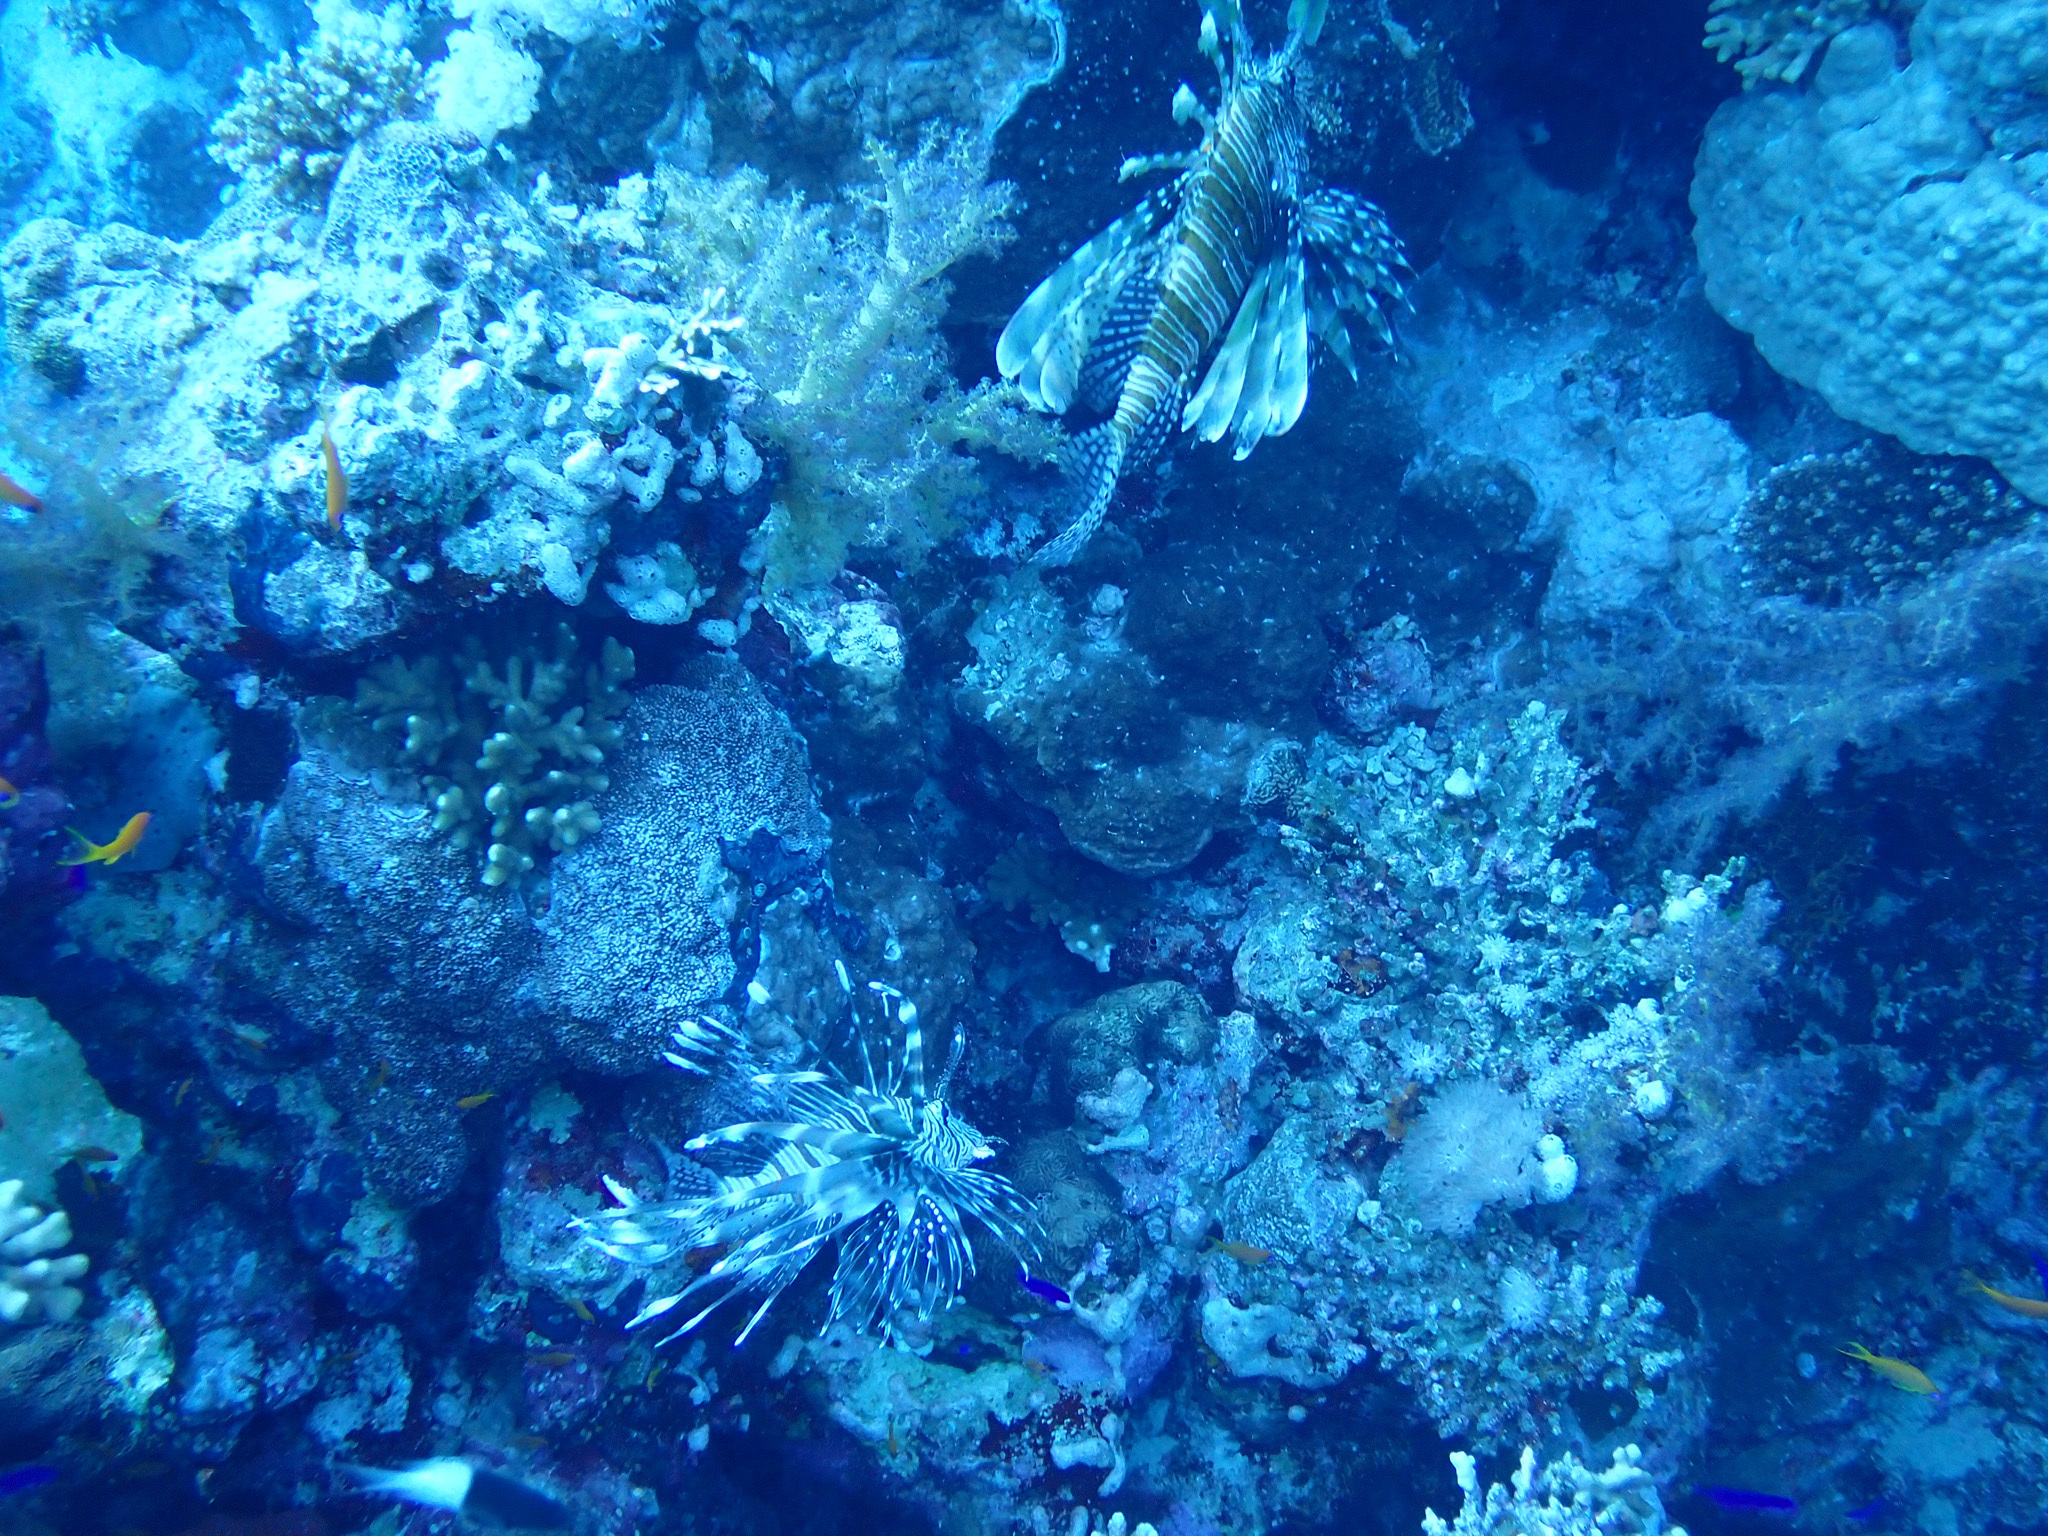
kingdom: Animalia
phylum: Chordata
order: Scorpaeniformes
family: Scorpaenidae
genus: Pterois
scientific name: Pterois miles
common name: Devil firefish
